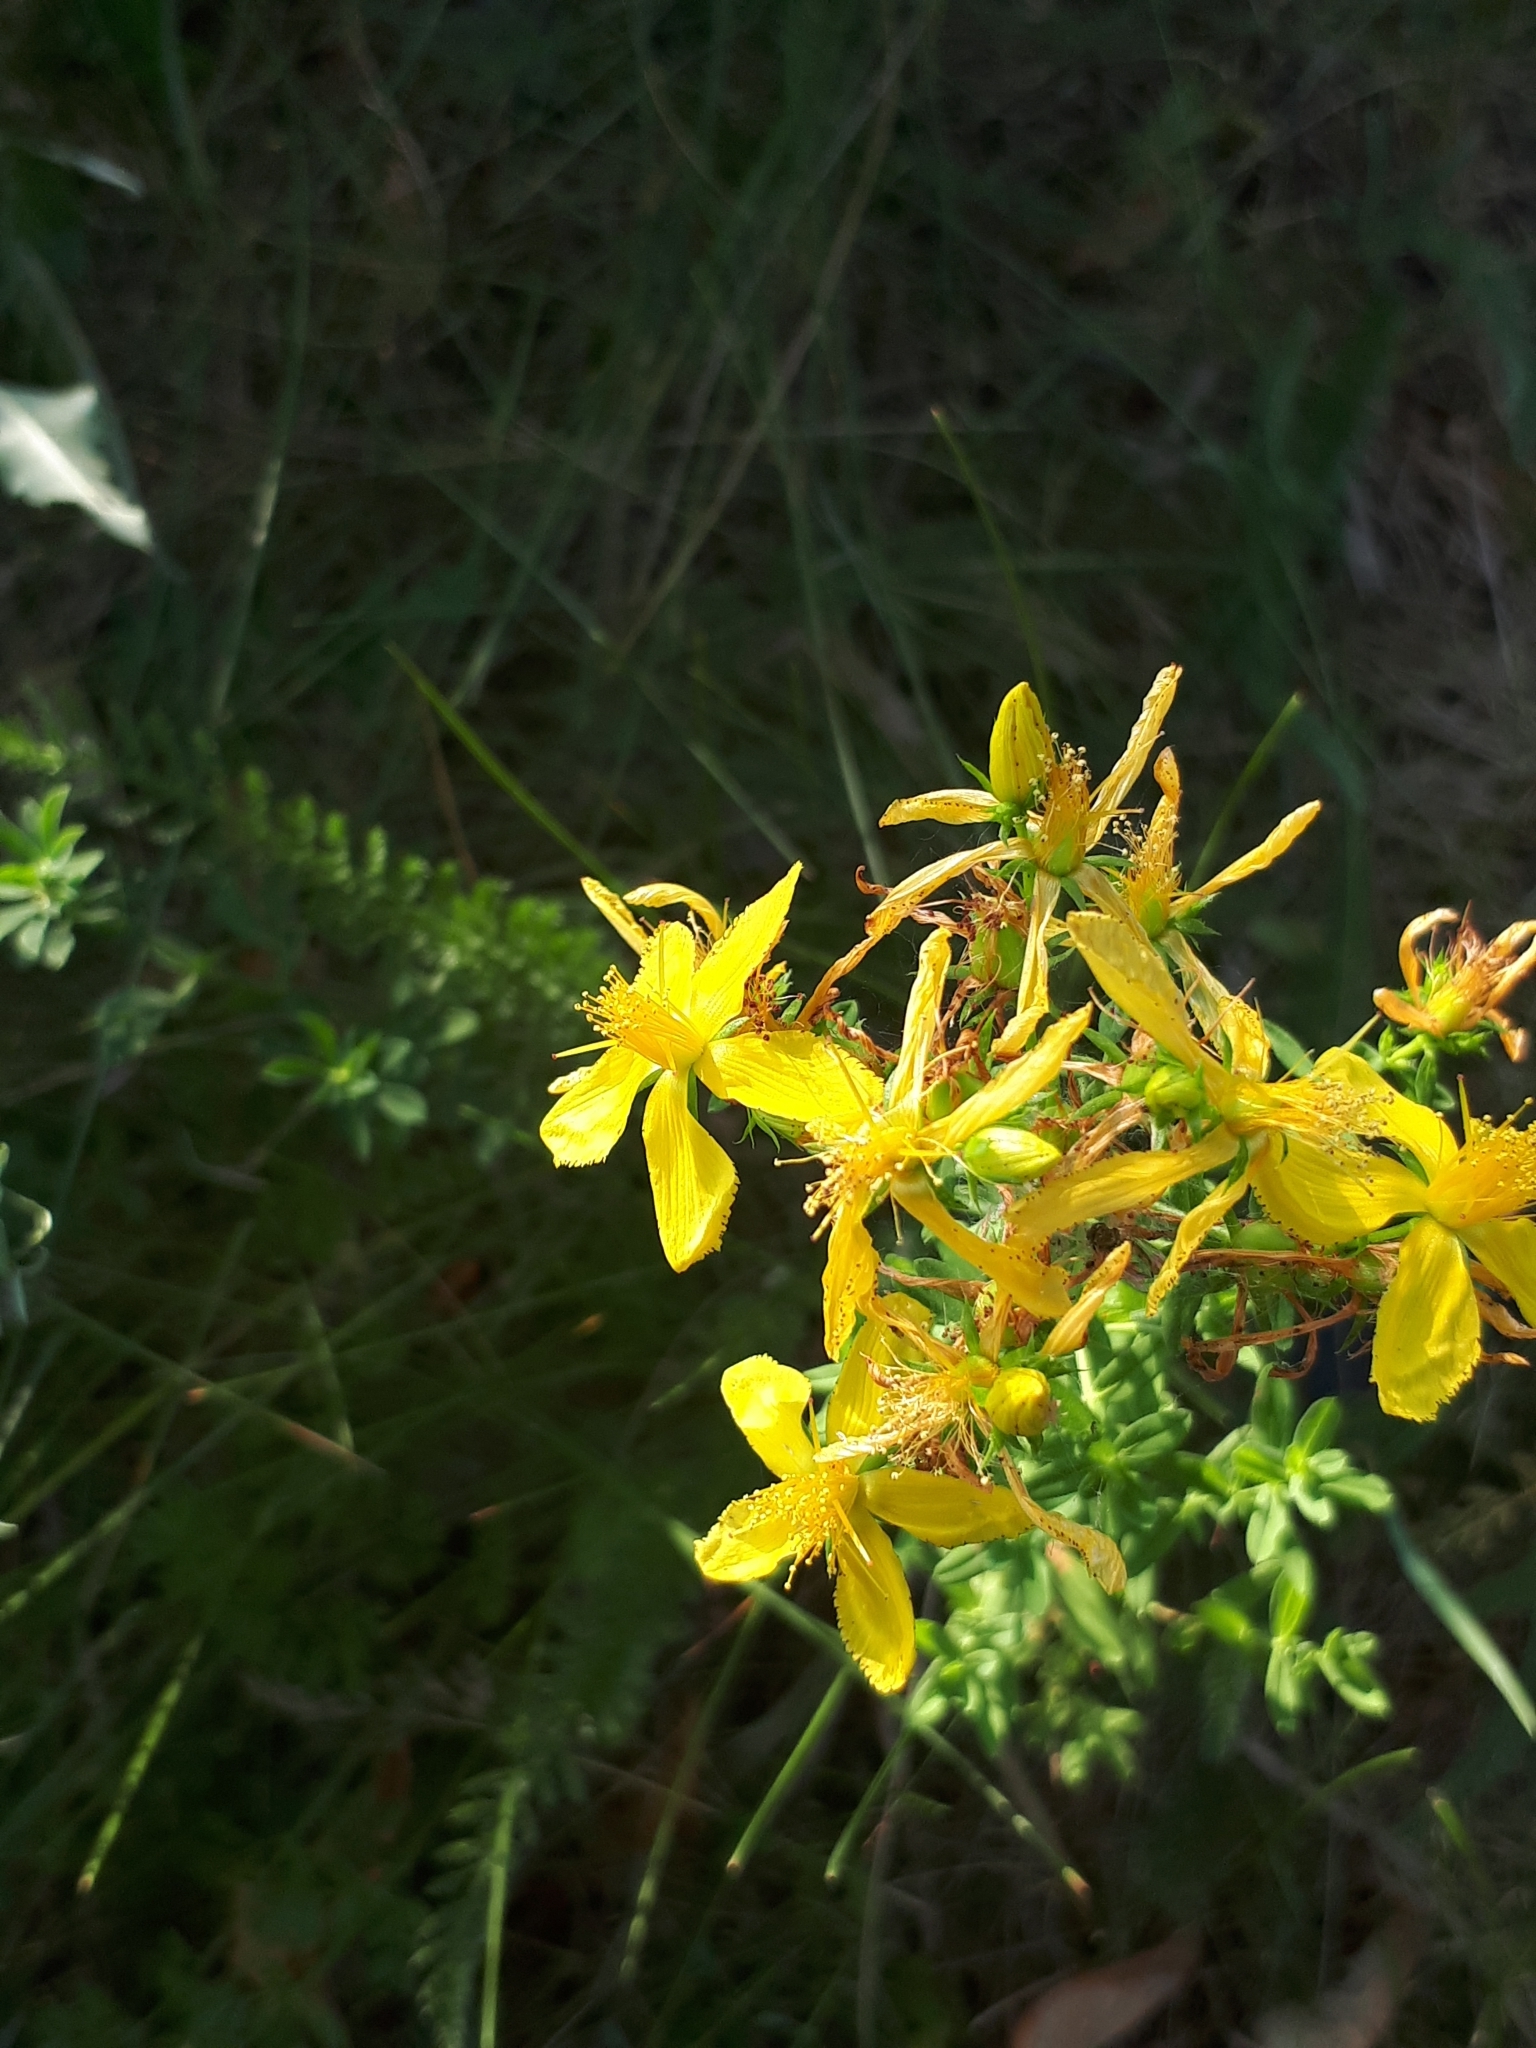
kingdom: Plantae
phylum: Tracheophyta
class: Magnoliopsida
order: Malpighiales
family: Hypericaceae
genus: Hypericum
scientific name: Hypericum perforatum
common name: Common st. johnswort
